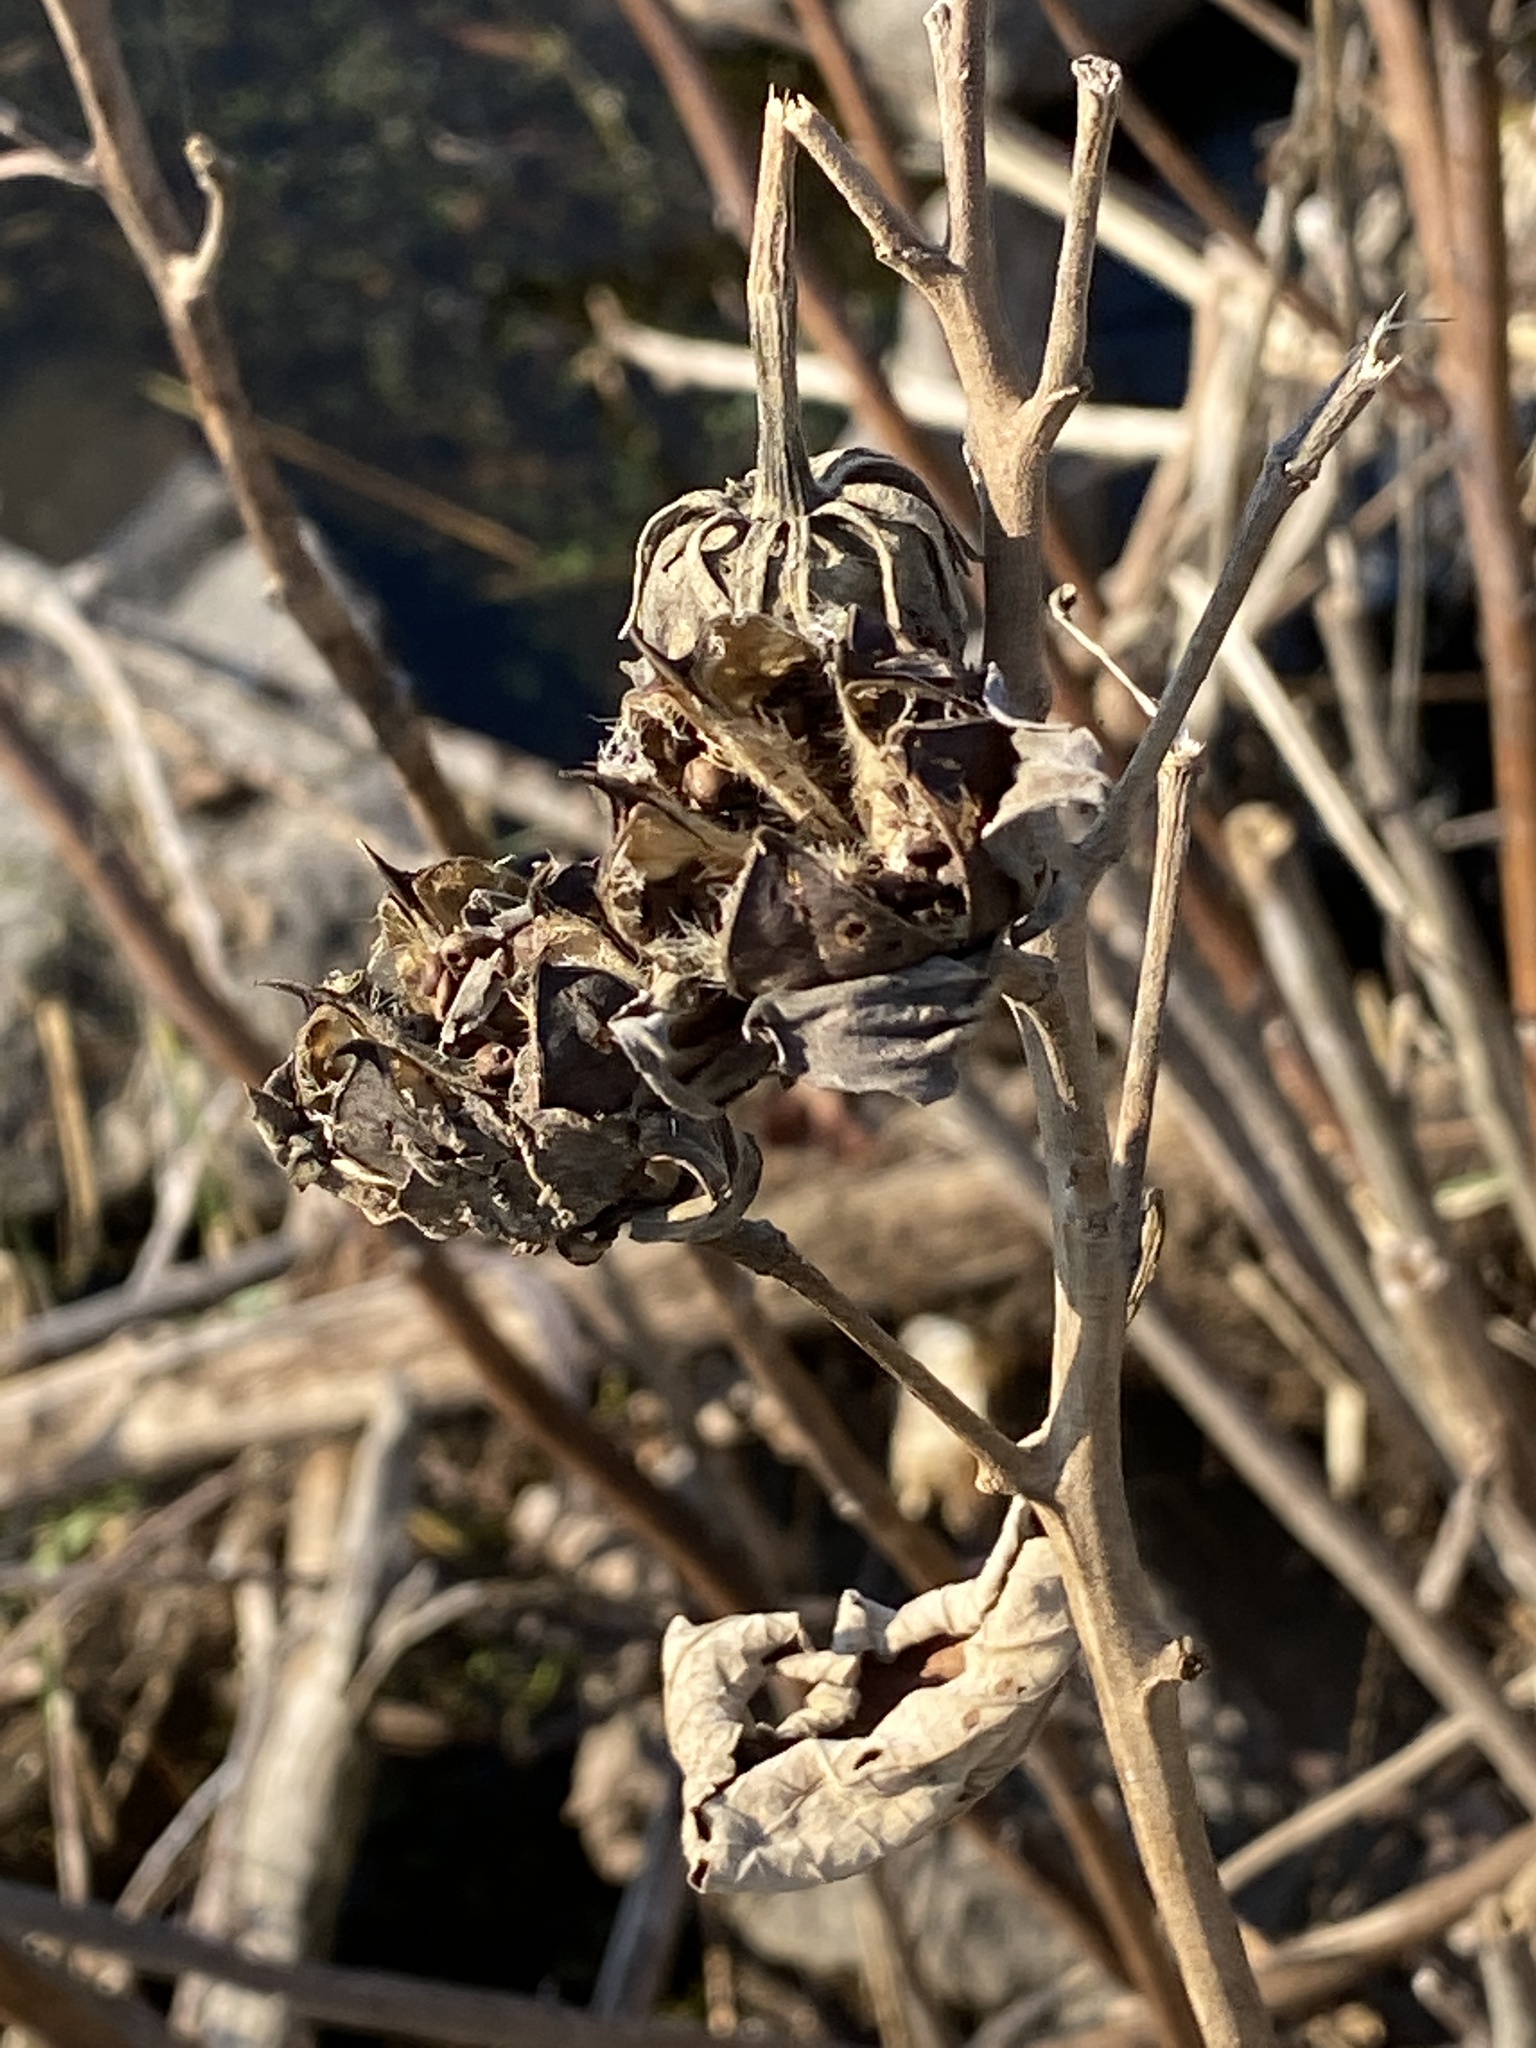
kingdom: Plantae
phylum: Tracheophyta
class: Magnoliopsida
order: Malvales
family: Malvaceae
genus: Hibiscus
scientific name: Hibiscus moscheutos
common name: Common rose-mallow
